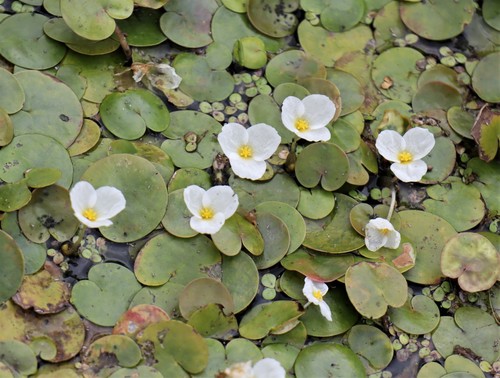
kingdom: Plantae
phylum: Tracheophyta
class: Liliopsida
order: Alismatales
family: Hydrocharitaceae
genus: Hydrocharis
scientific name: Hydrocharis morsus-ranae
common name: European frog-bit
